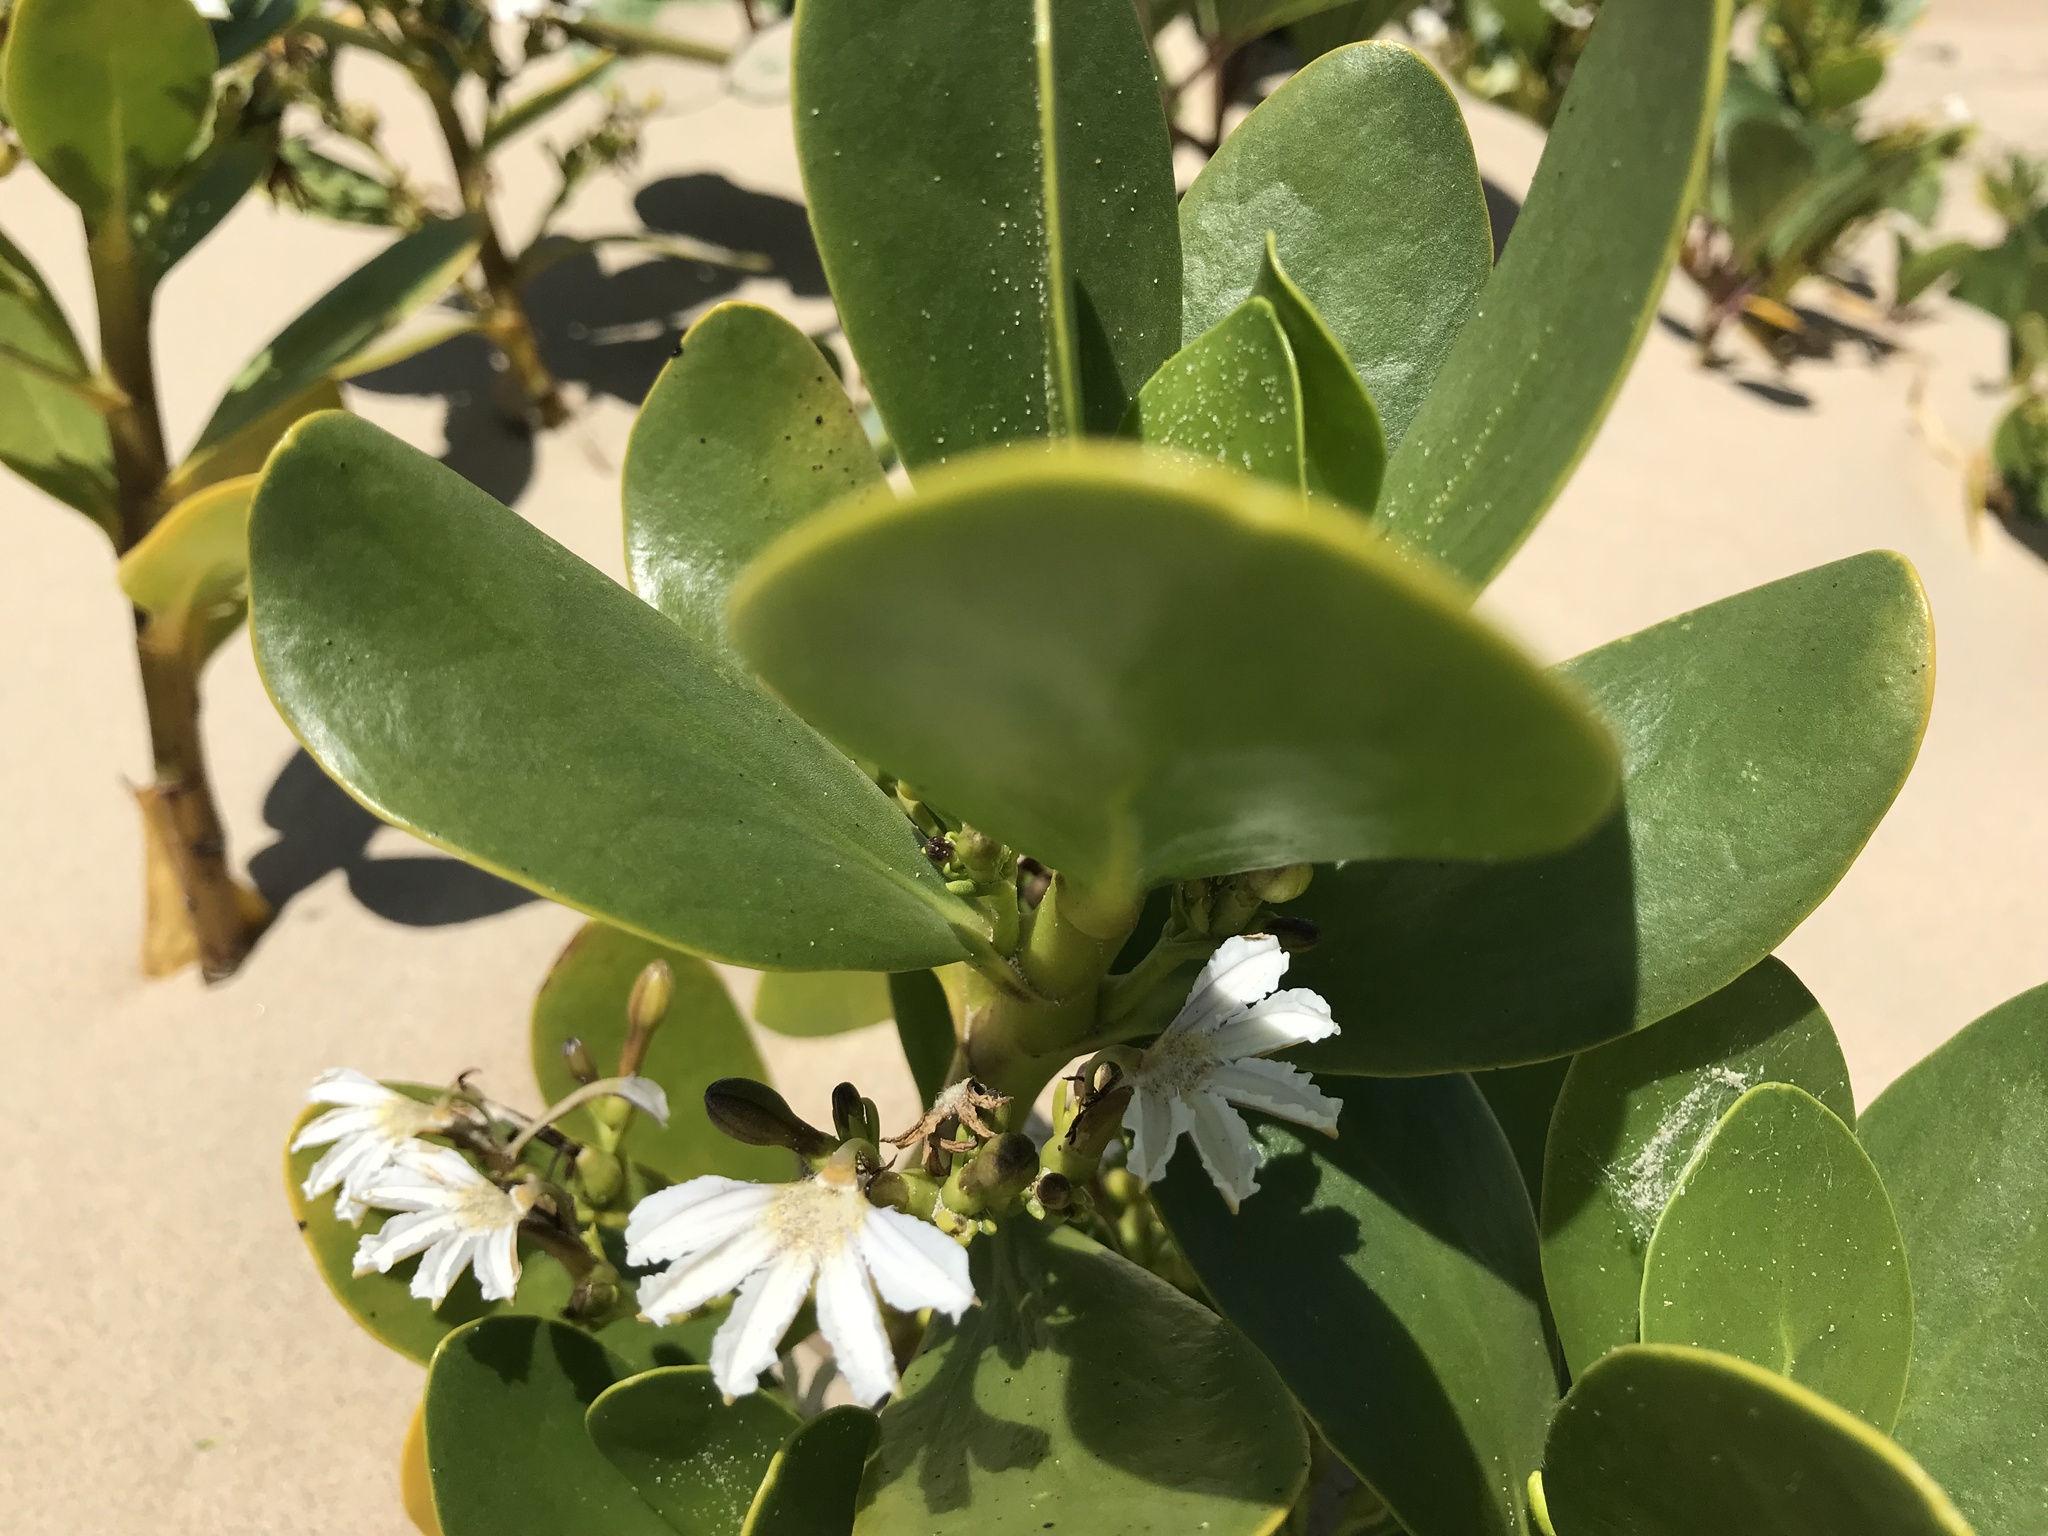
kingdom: Plantae
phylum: Tracheophyta
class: Magnoliopsida
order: Asterales
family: Goodeniaceae
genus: Scaevola
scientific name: Scaevola plumieri
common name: Gull feed
